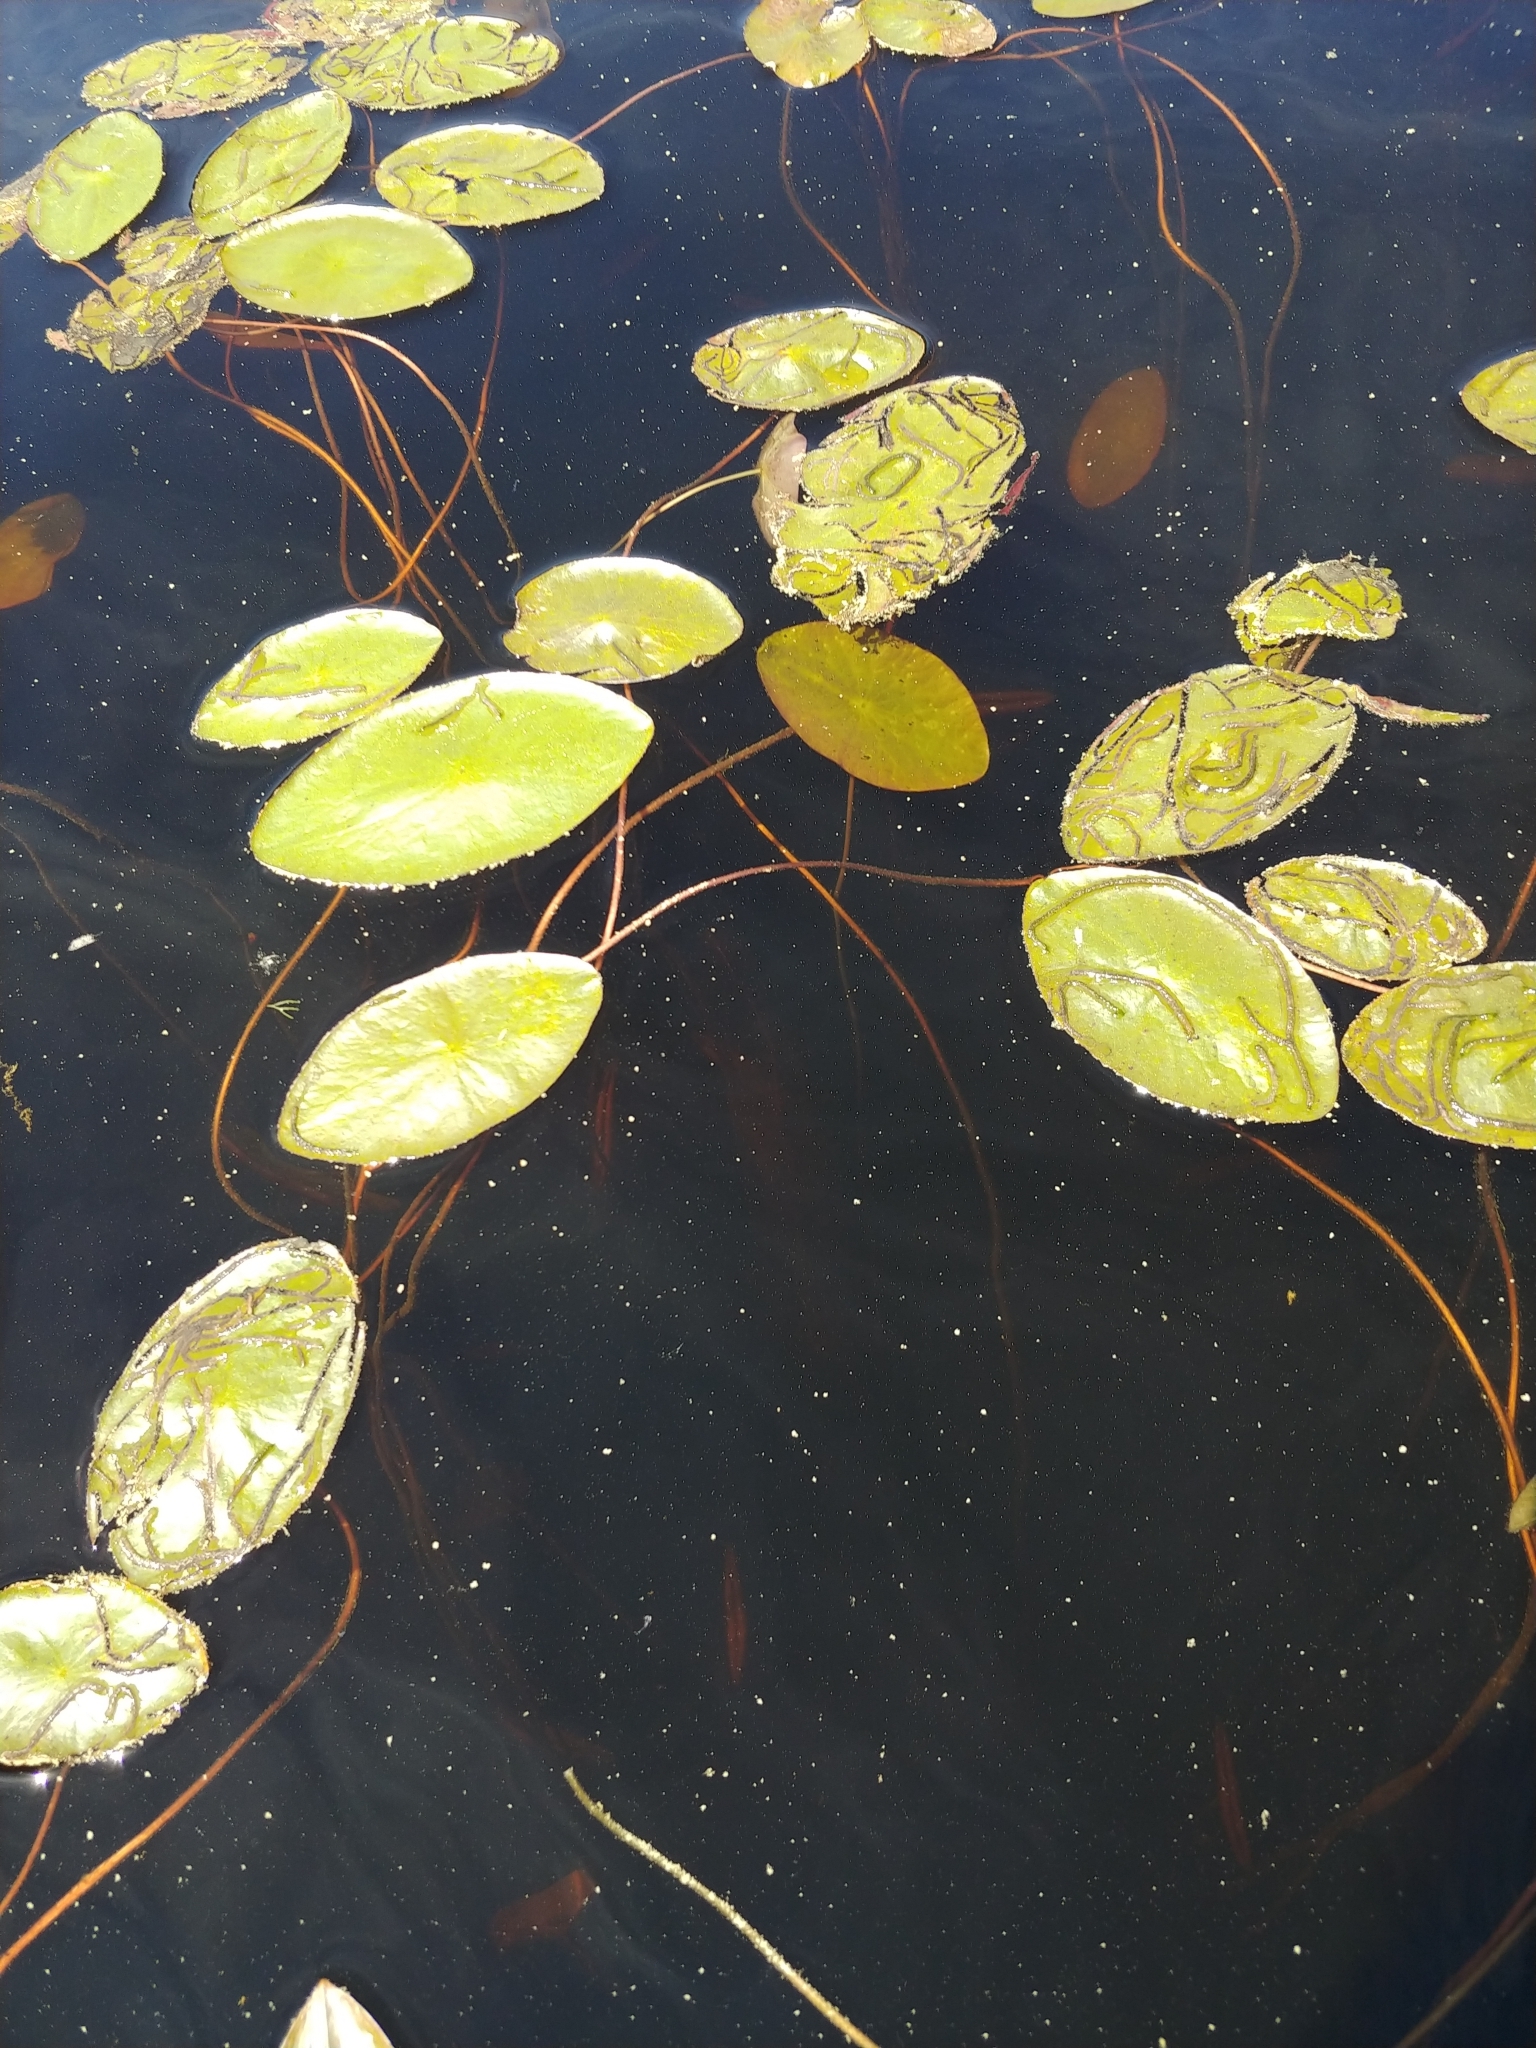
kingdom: Plantae
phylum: Tracheophyta
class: Magnoliopsida
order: Nymphaeales
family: Cabombaceae
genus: Brasenia
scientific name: Brasenia schreberi
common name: Water-shield
